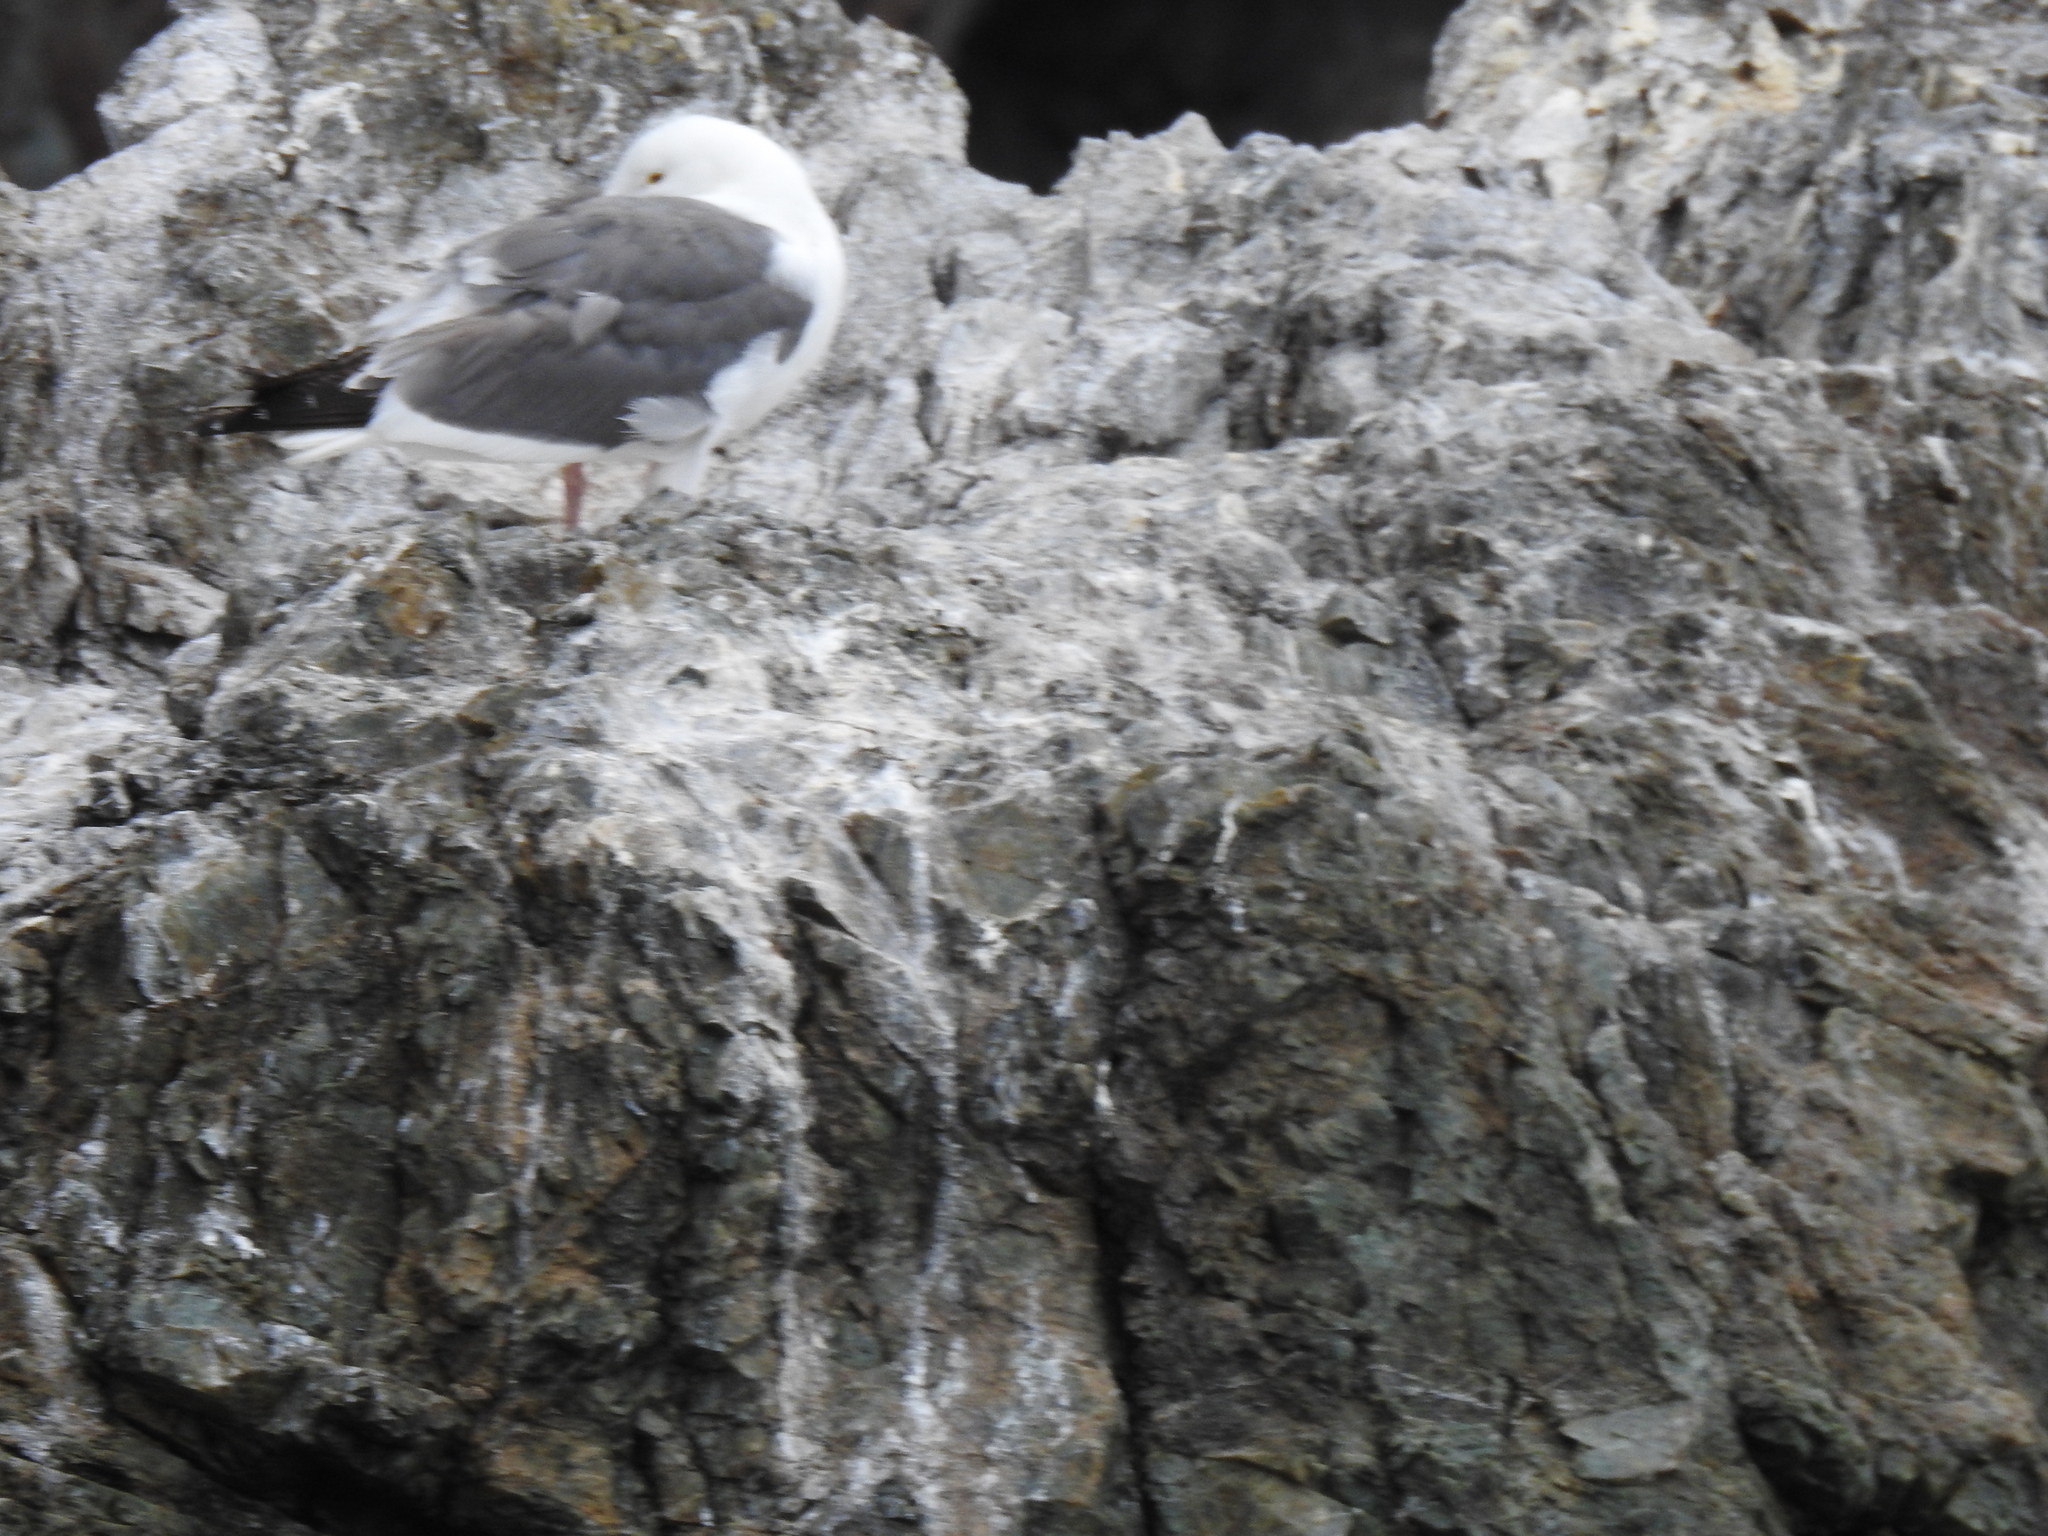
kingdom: Animalia
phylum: Chordata
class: Aves
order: Charadriiformes
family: Laridae
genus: Larus
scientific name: Larus occidentalis
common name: Western gull
